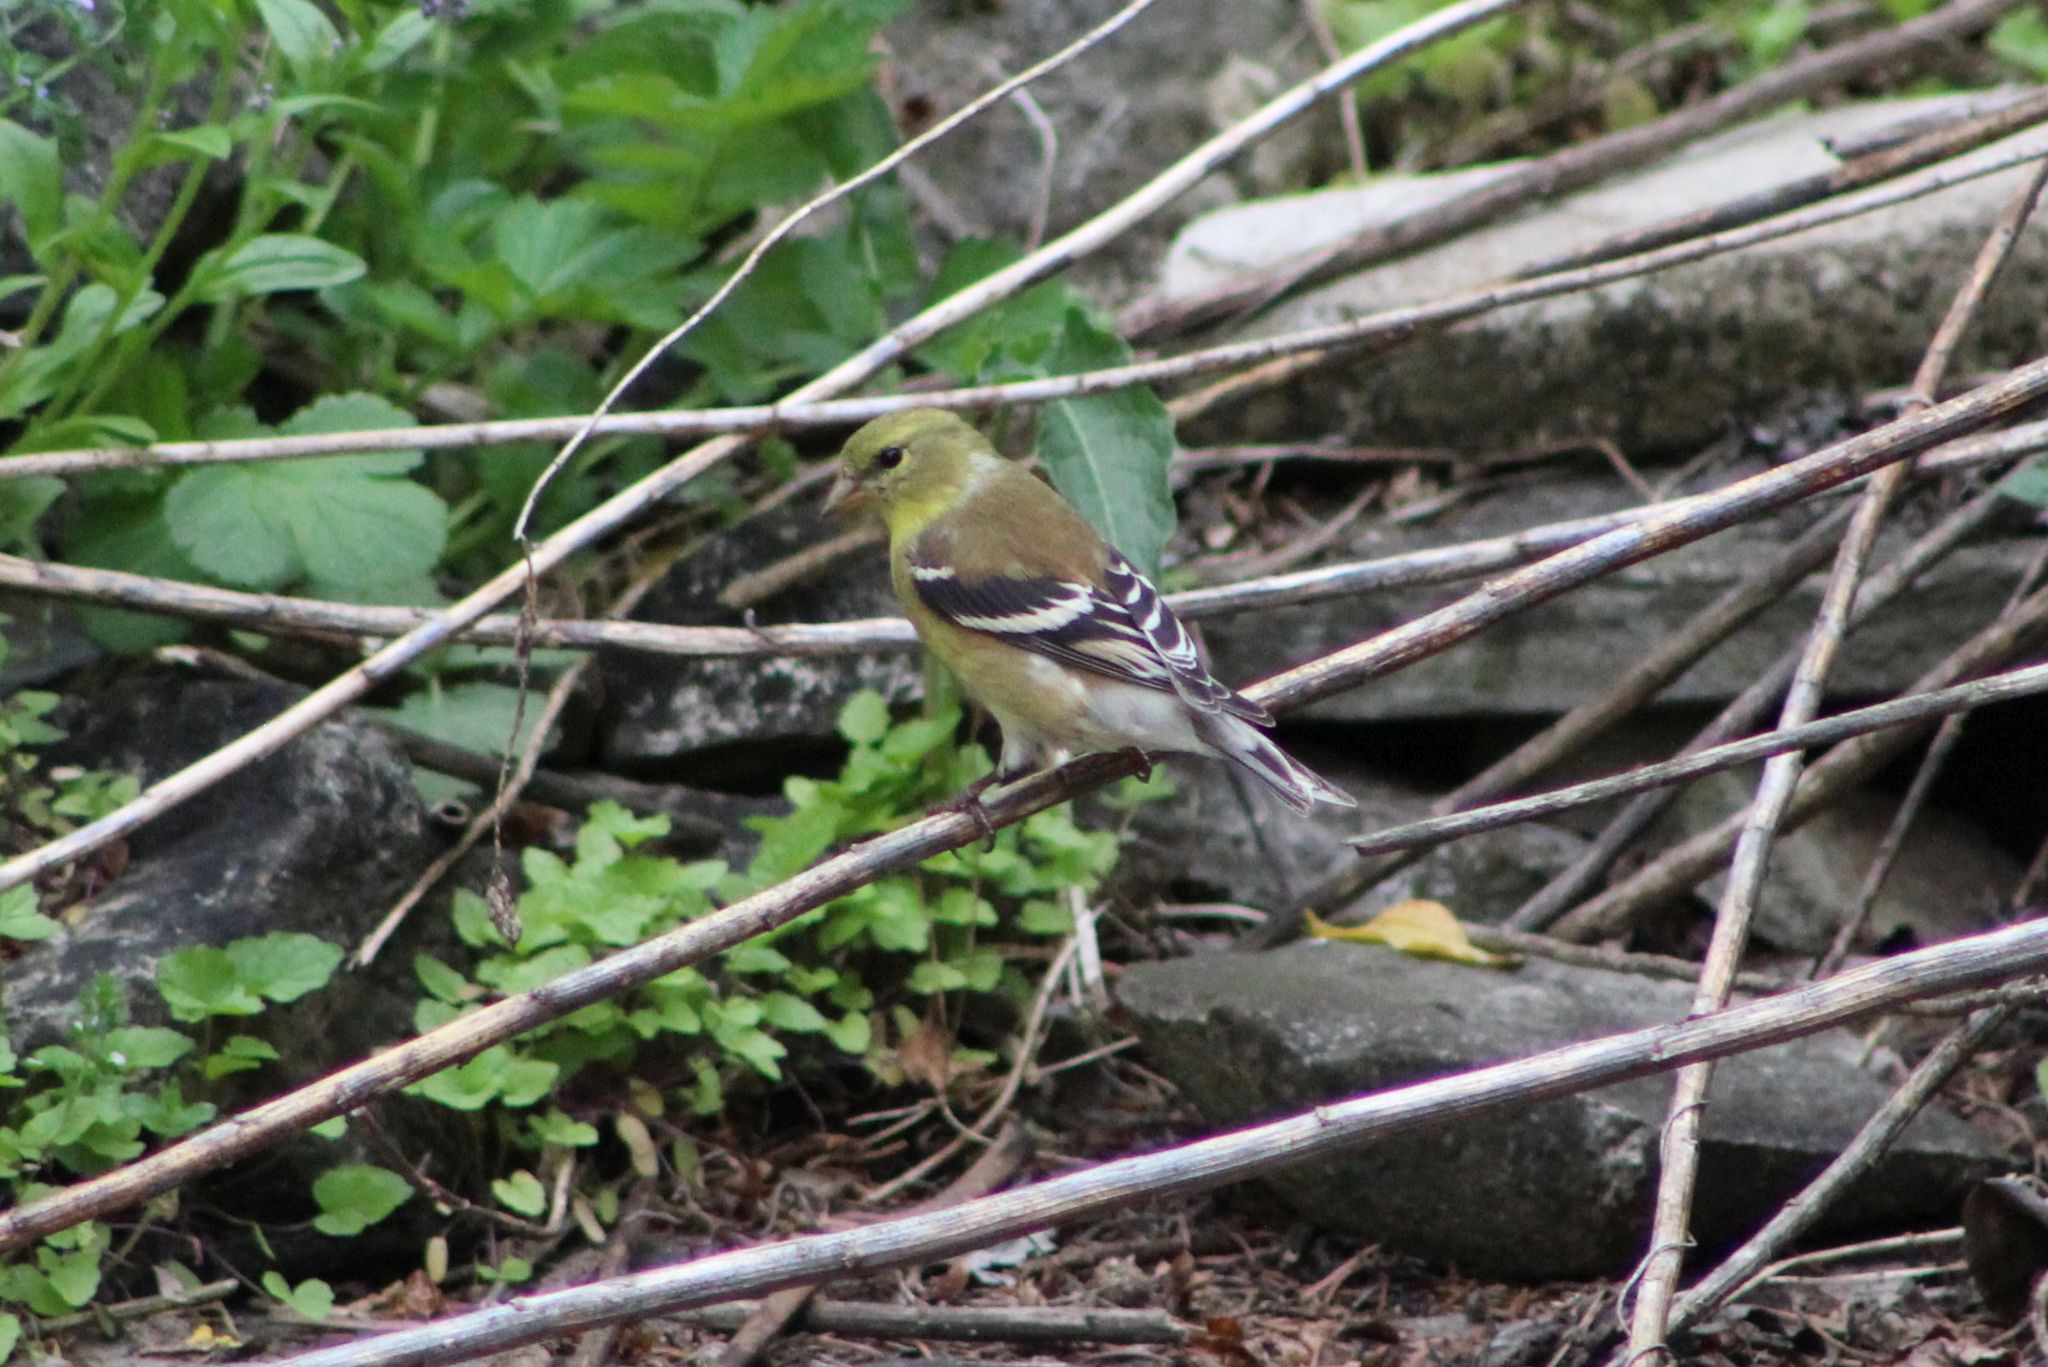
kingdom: Animalia
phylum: Chordata
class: Aves
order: Passeriformes
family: Fringillidae
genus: Spinus
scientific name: Spinus tristis
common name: American goldfinch
